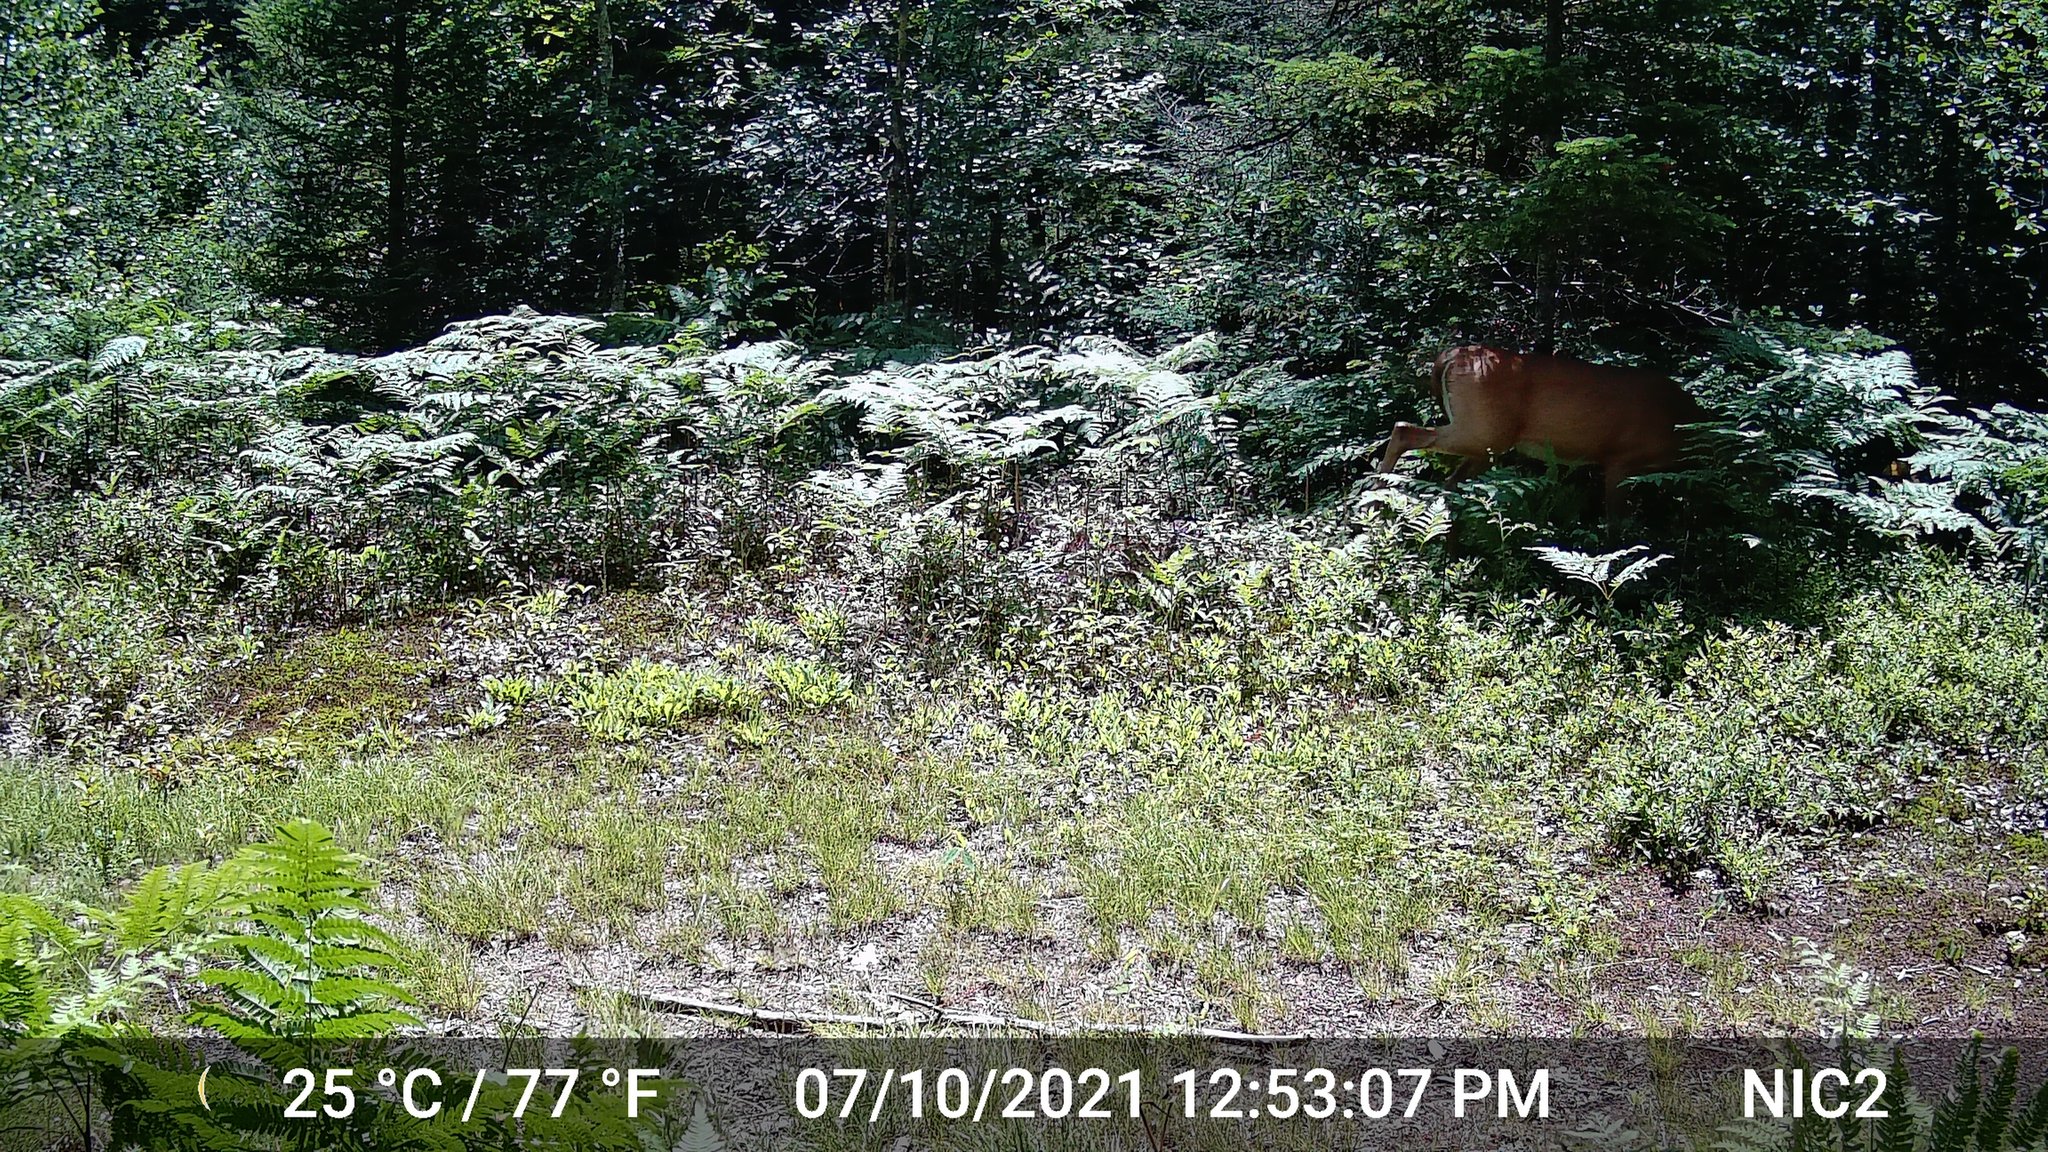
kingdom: Animalia
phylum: Chordata
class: Mammalia
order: Artiodactyla
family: Cervidae
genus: Odocoileus
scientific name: Odocoileus virginianus
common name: White-tailed deer
